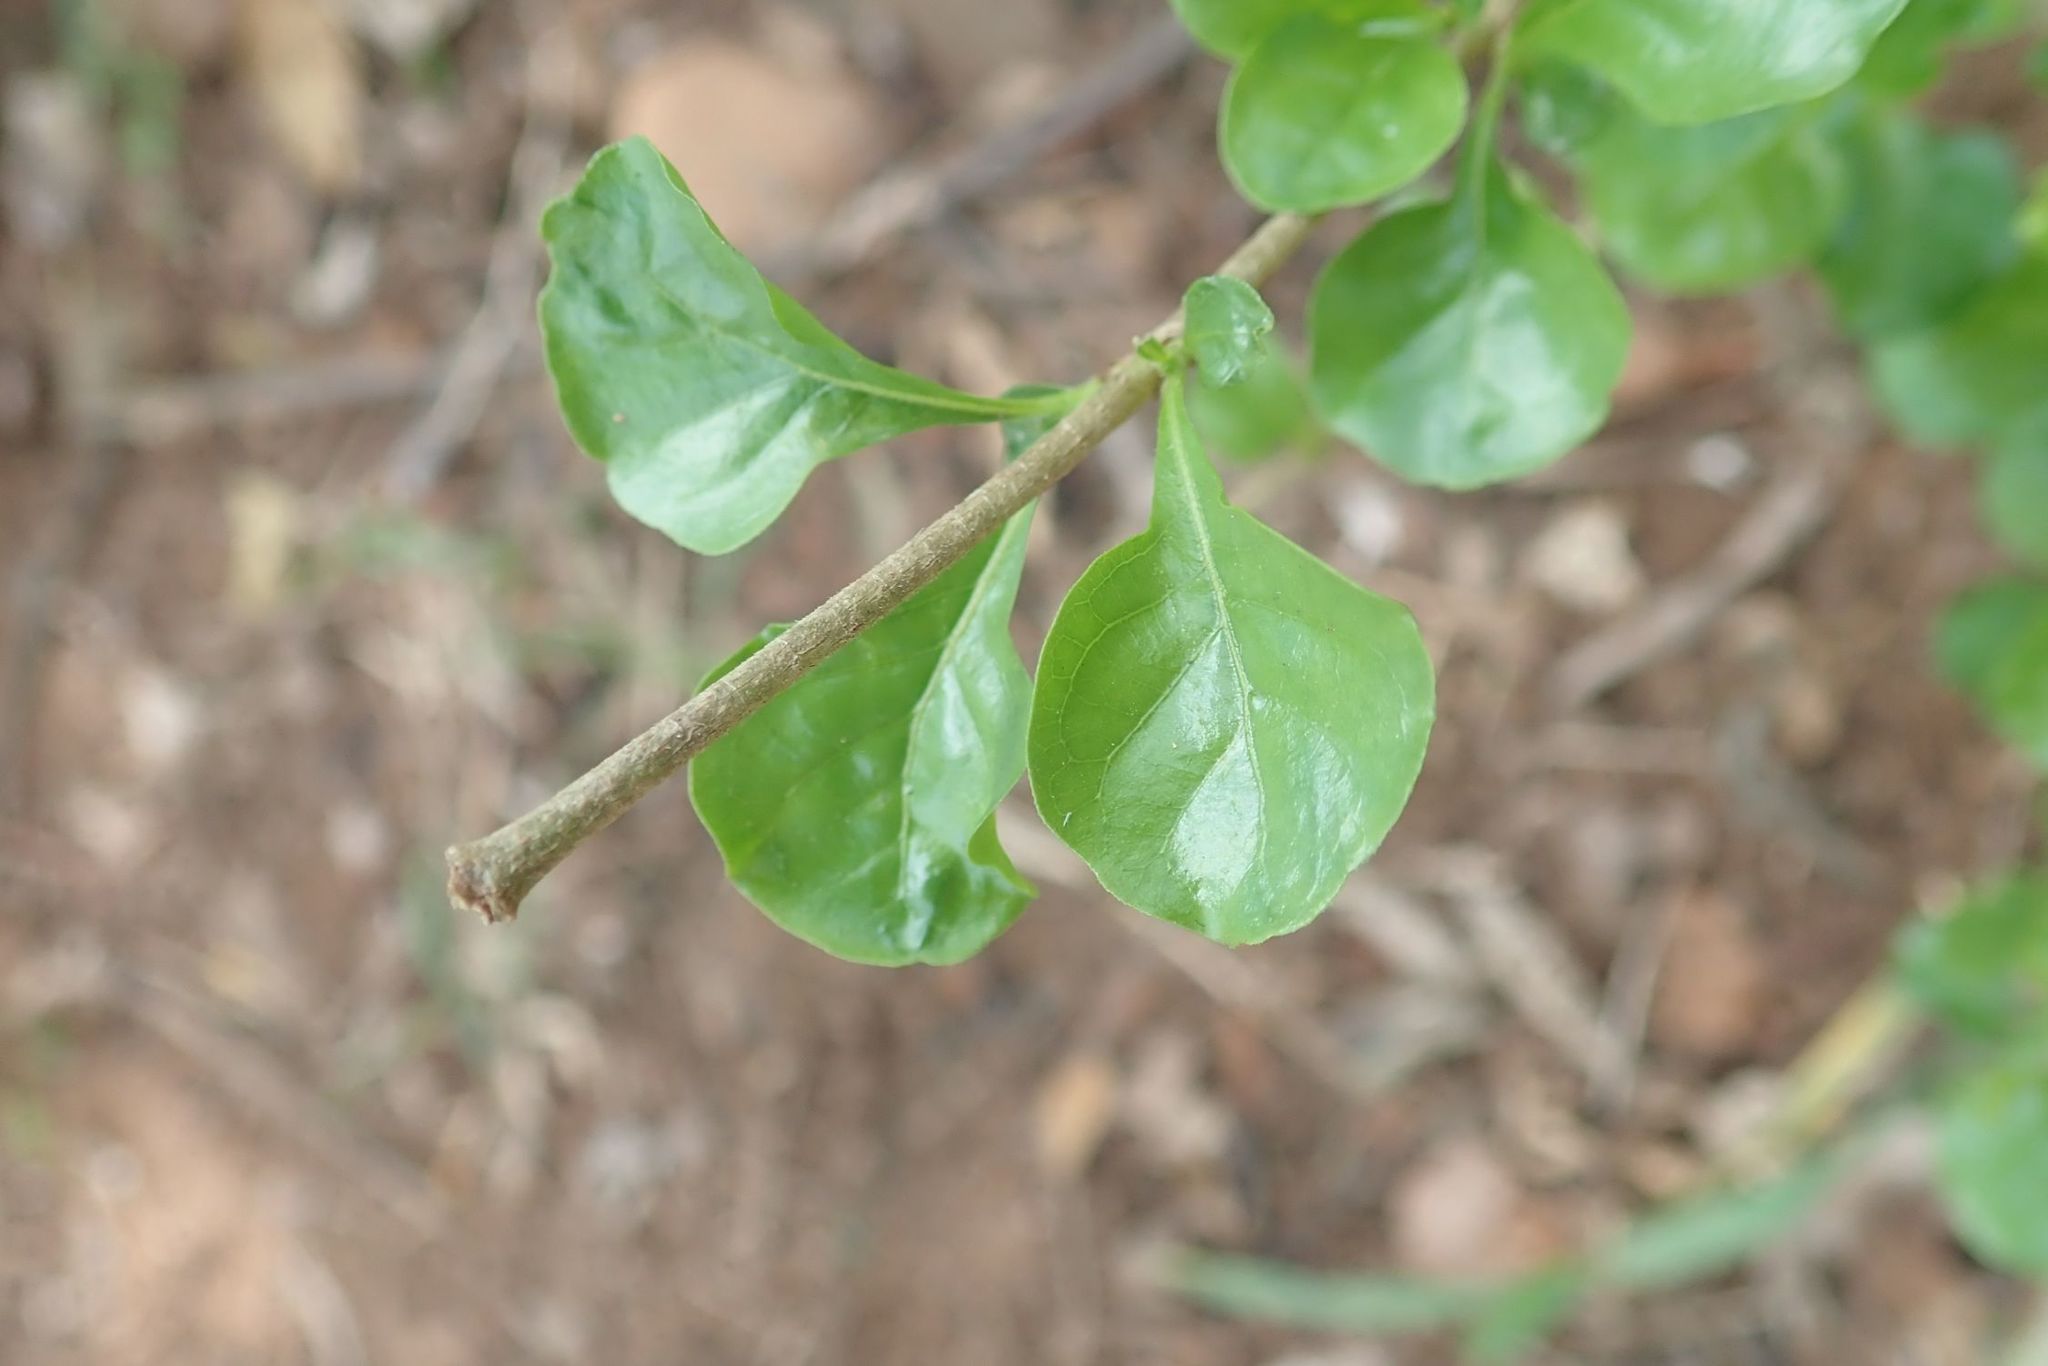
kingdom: Plantae
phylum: Tracheophyta
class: Magnoliopsida
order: Gentianales
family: Rubiaceae
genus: Coddia
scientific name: Coddia rudis
